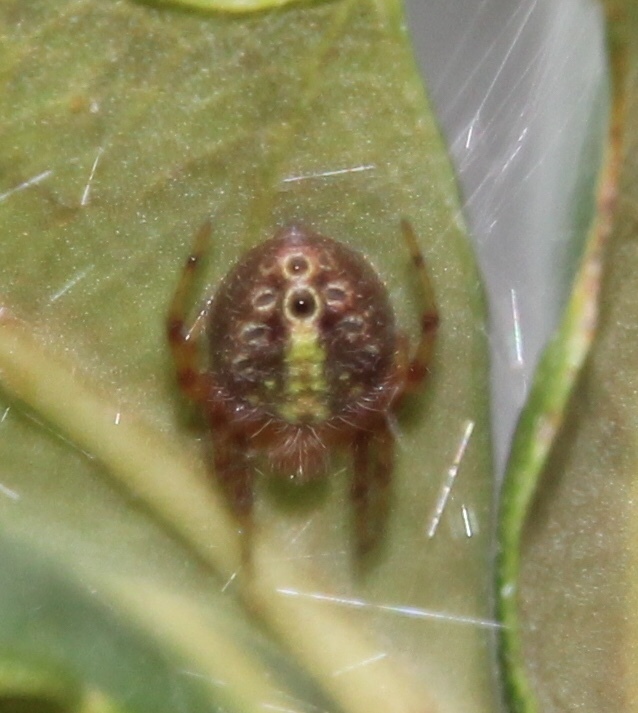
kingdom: Animalia
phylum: Arthropoda
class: Arachnida
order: Araneae
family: Araneidae
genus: Eriophora
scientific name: Eriophora ravilla
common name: Orb weavers
